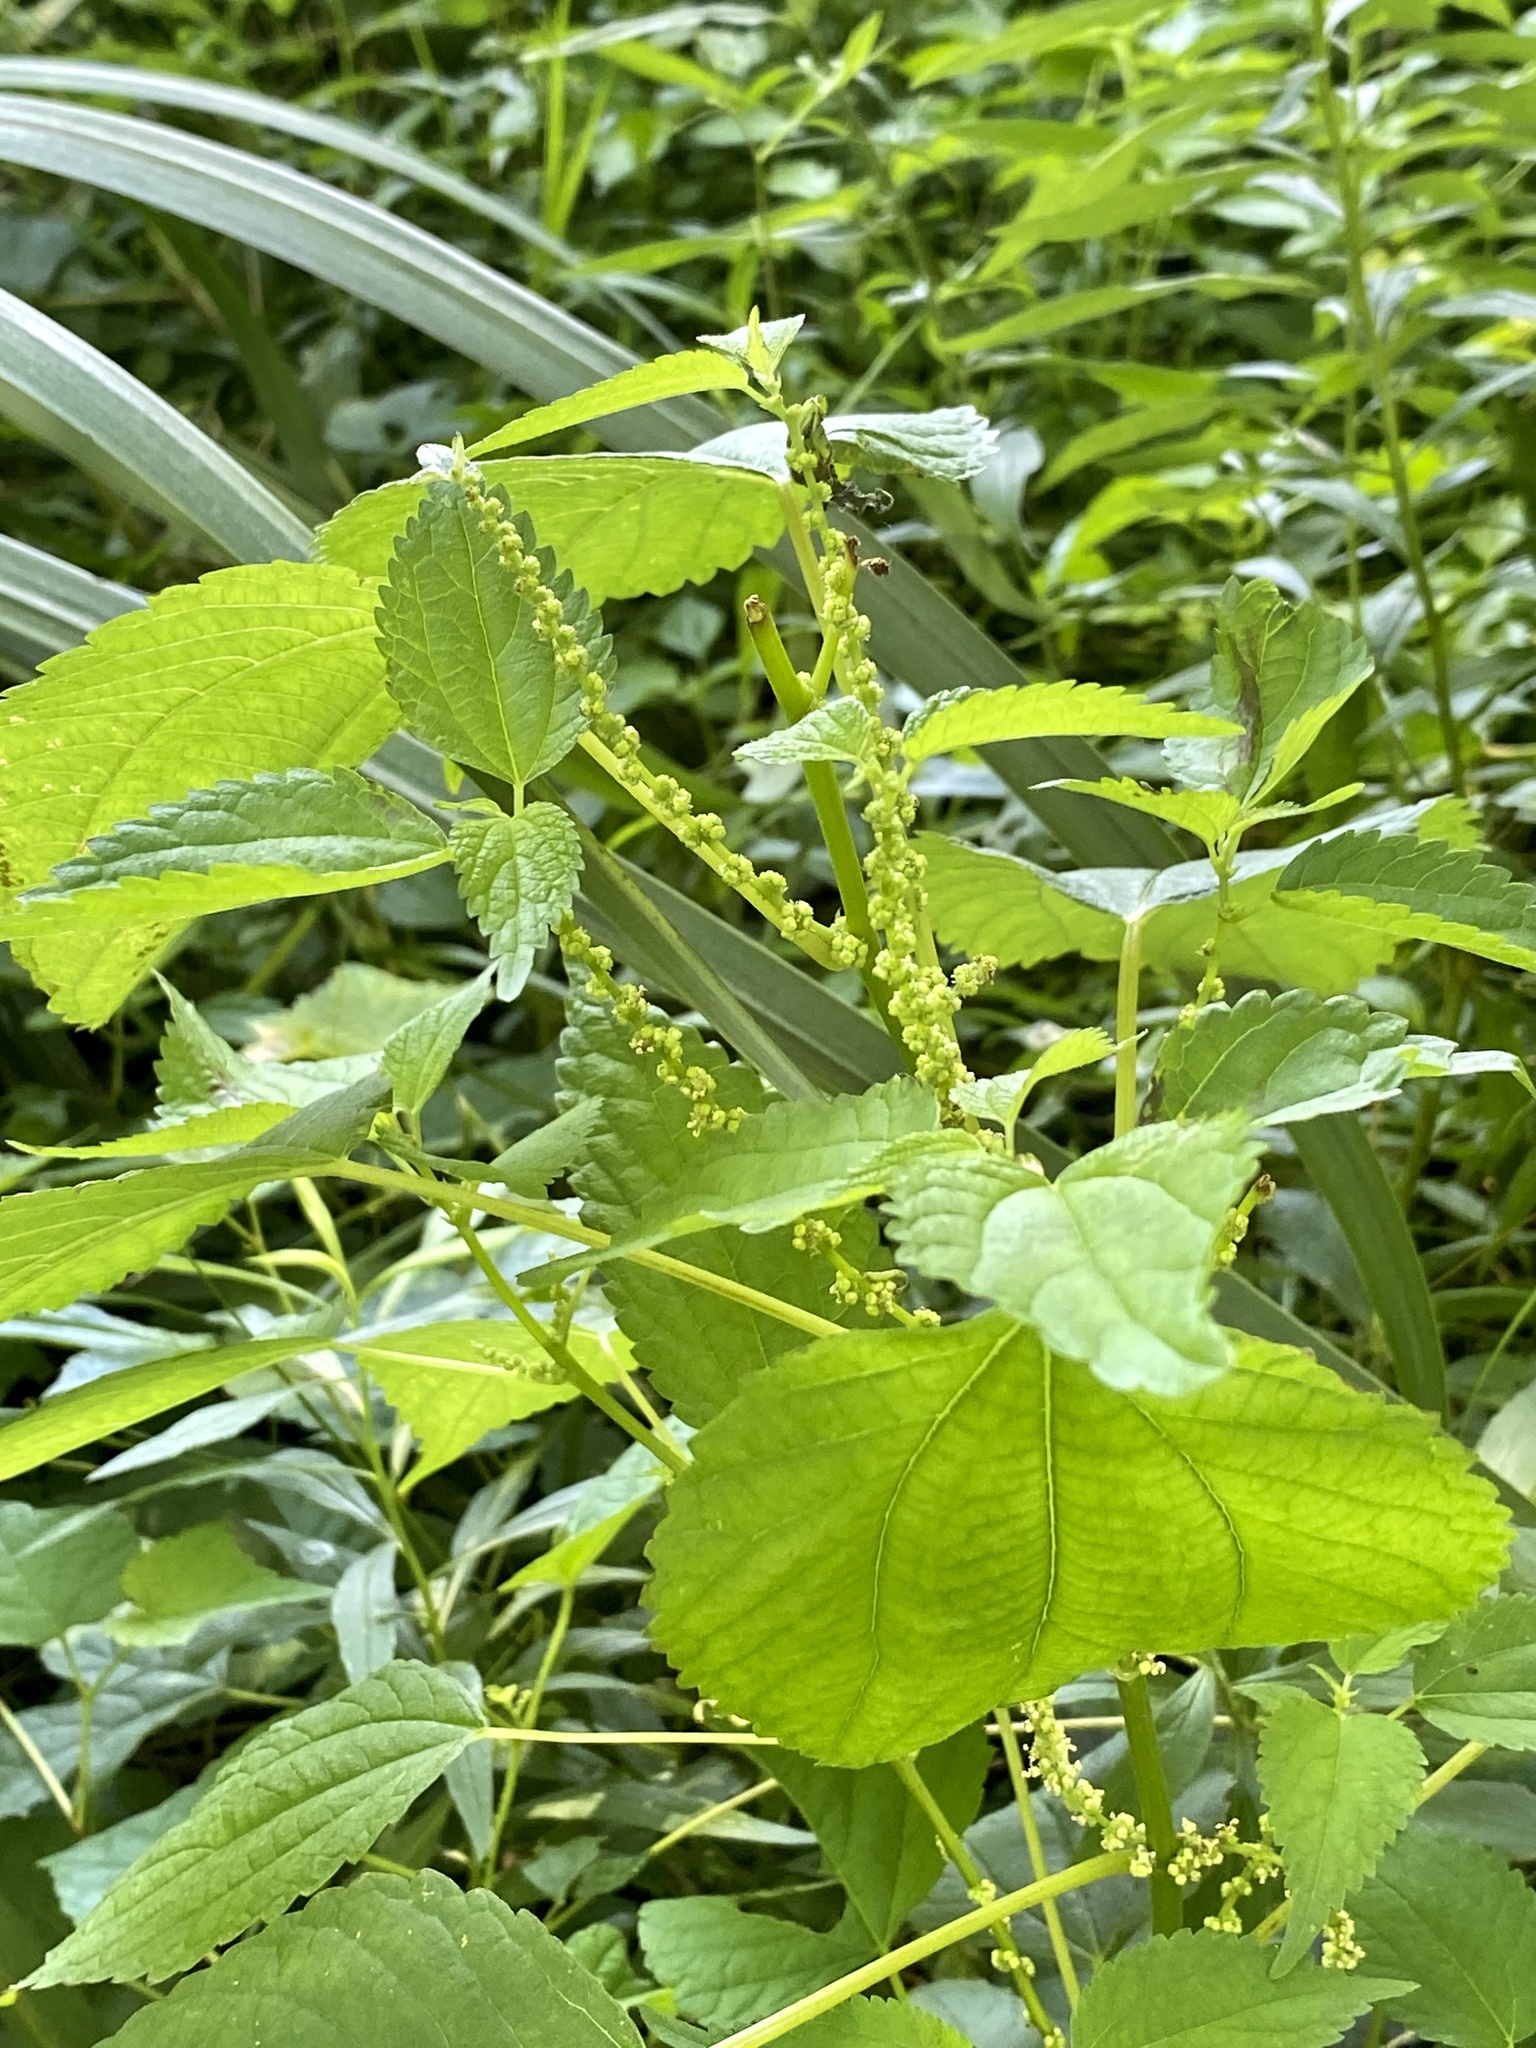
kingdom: Plantae
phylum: Tracheophyta
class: Magnoliopsida
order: Rosales
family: Urticaceae
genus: Boehmeria
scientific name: Boehmeria cylindrica
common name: Bog-hemp
